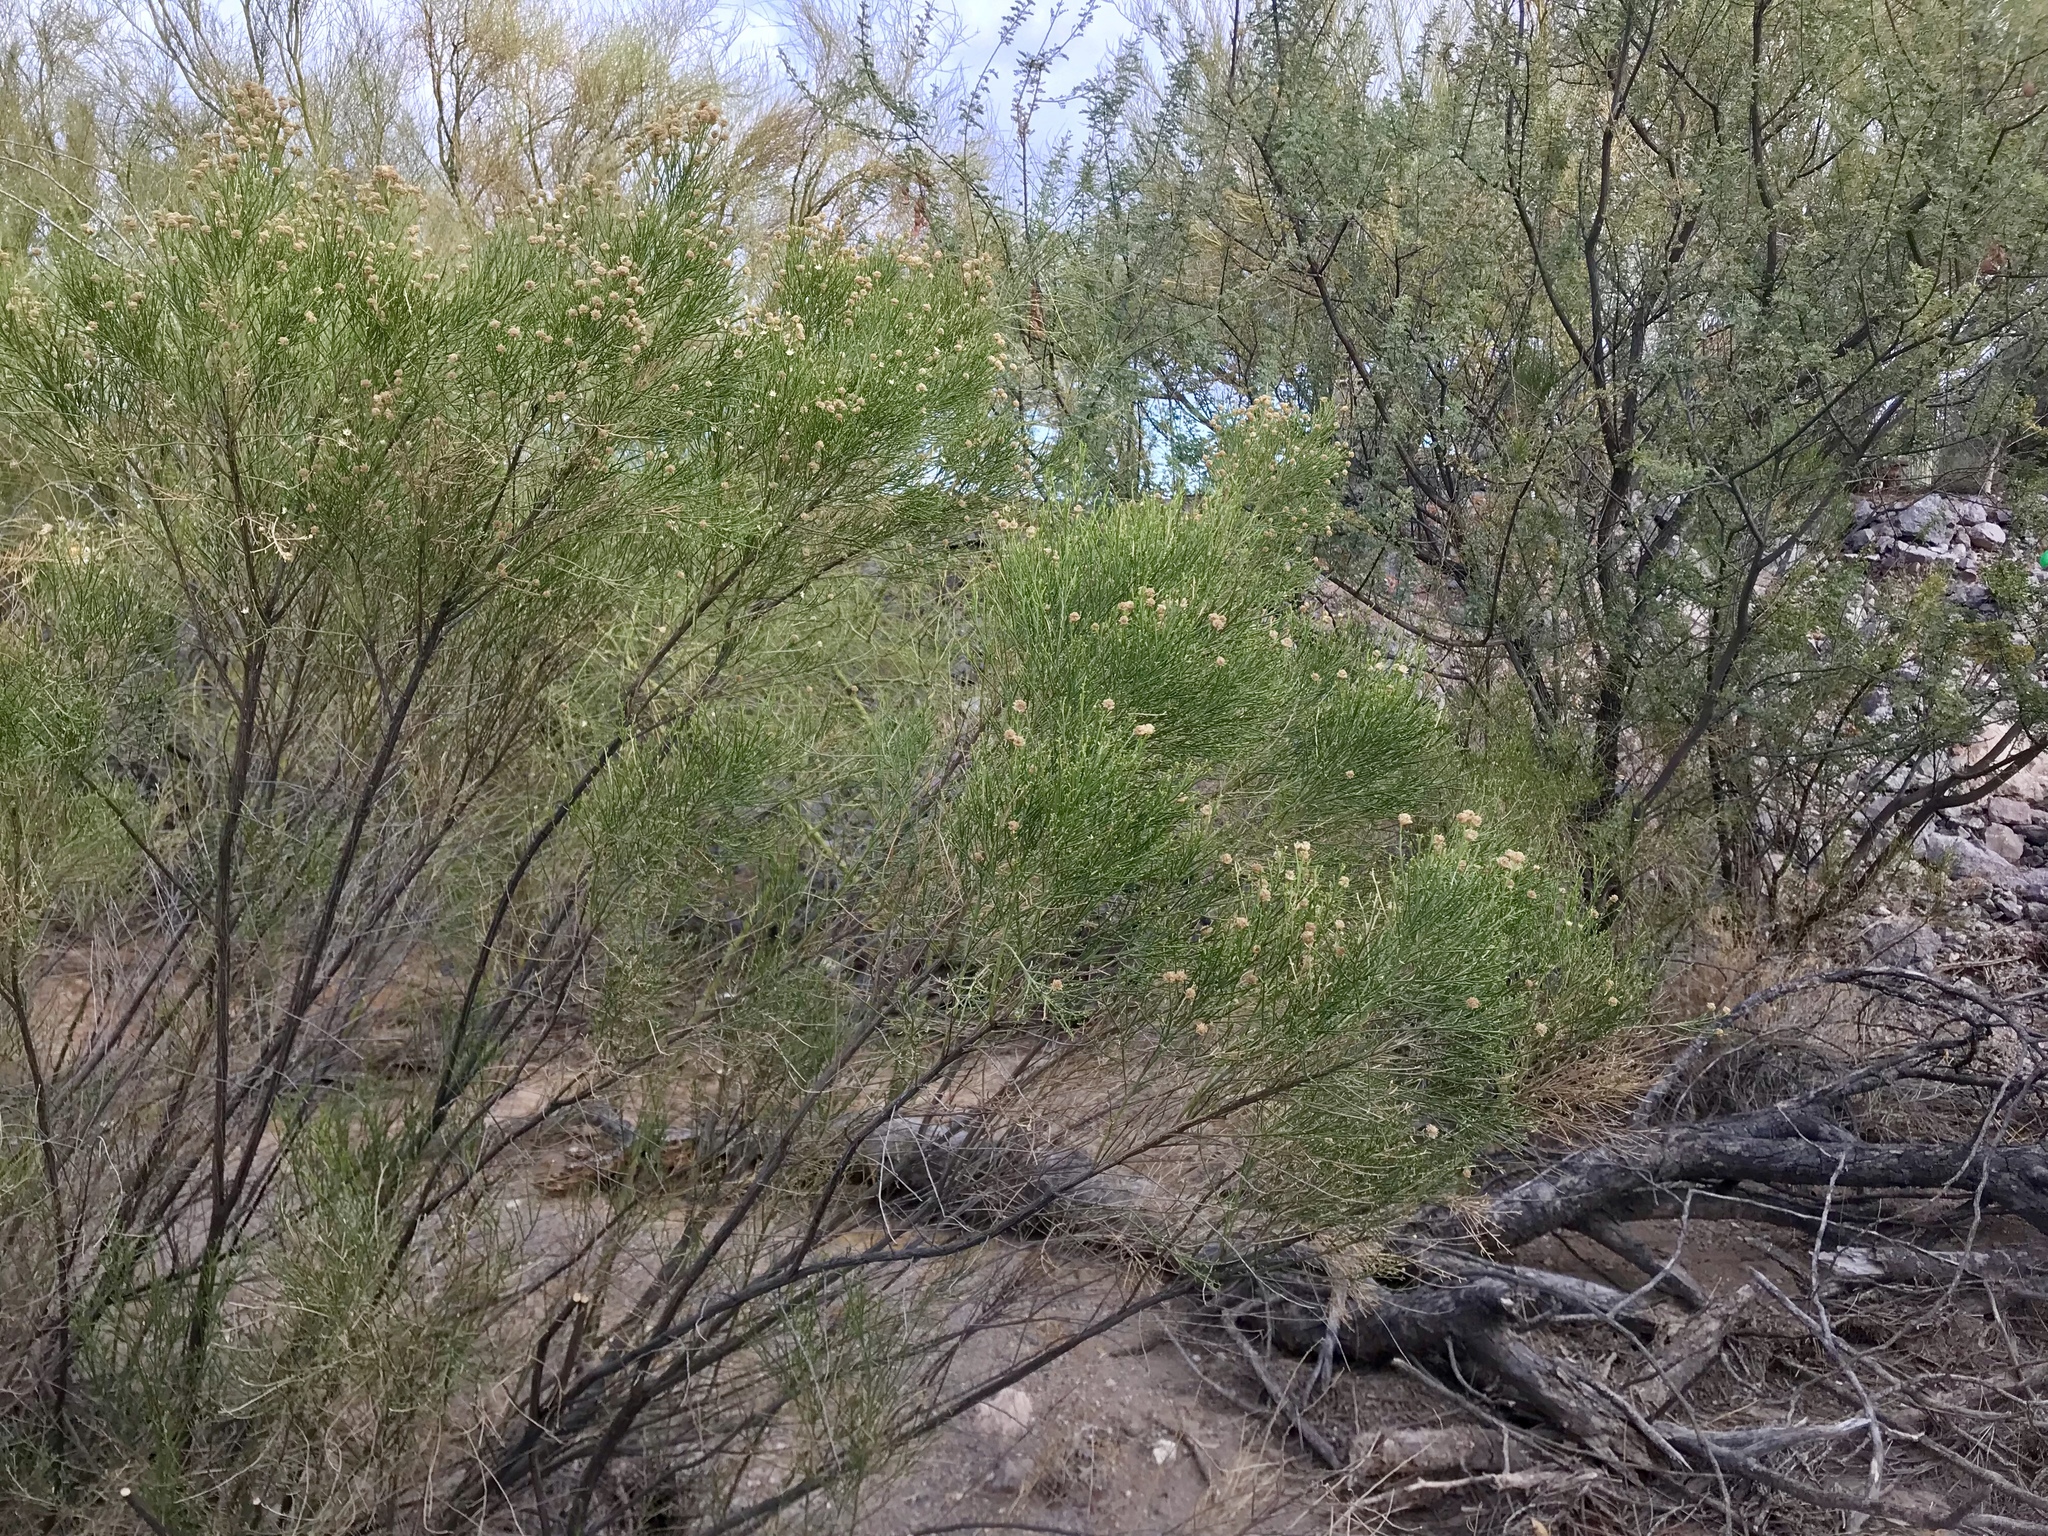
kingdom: Plantae
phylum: Tracheophyta
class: Magnoliopsida
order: Asterales
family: Asteraceae
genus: Baccharis
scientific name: Baccharis sarothroides
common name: Desert-broom
